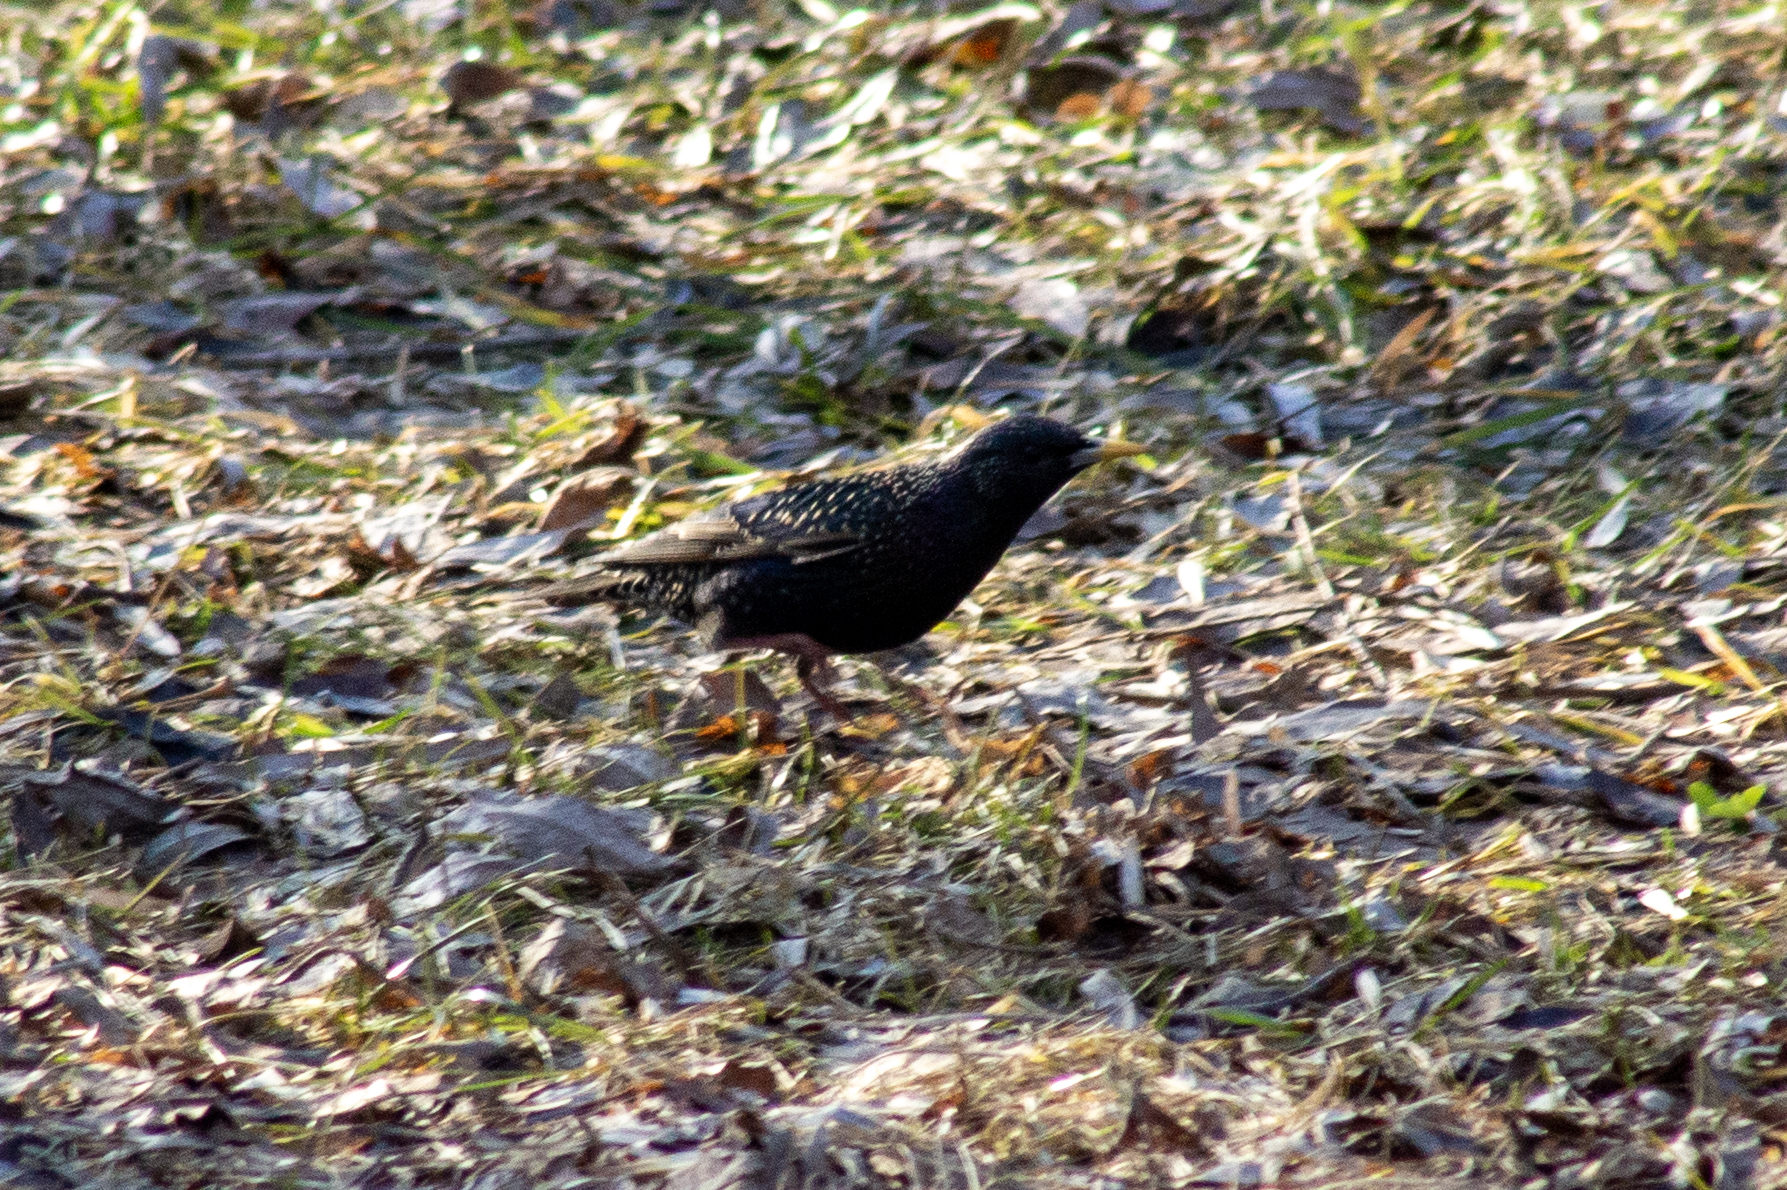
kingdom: Animalia
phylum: Chordata
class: Aves
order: Passeriformes
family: Sturnidae
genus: Sturnus
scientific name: Sturnus vulgaris
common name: Common starling
